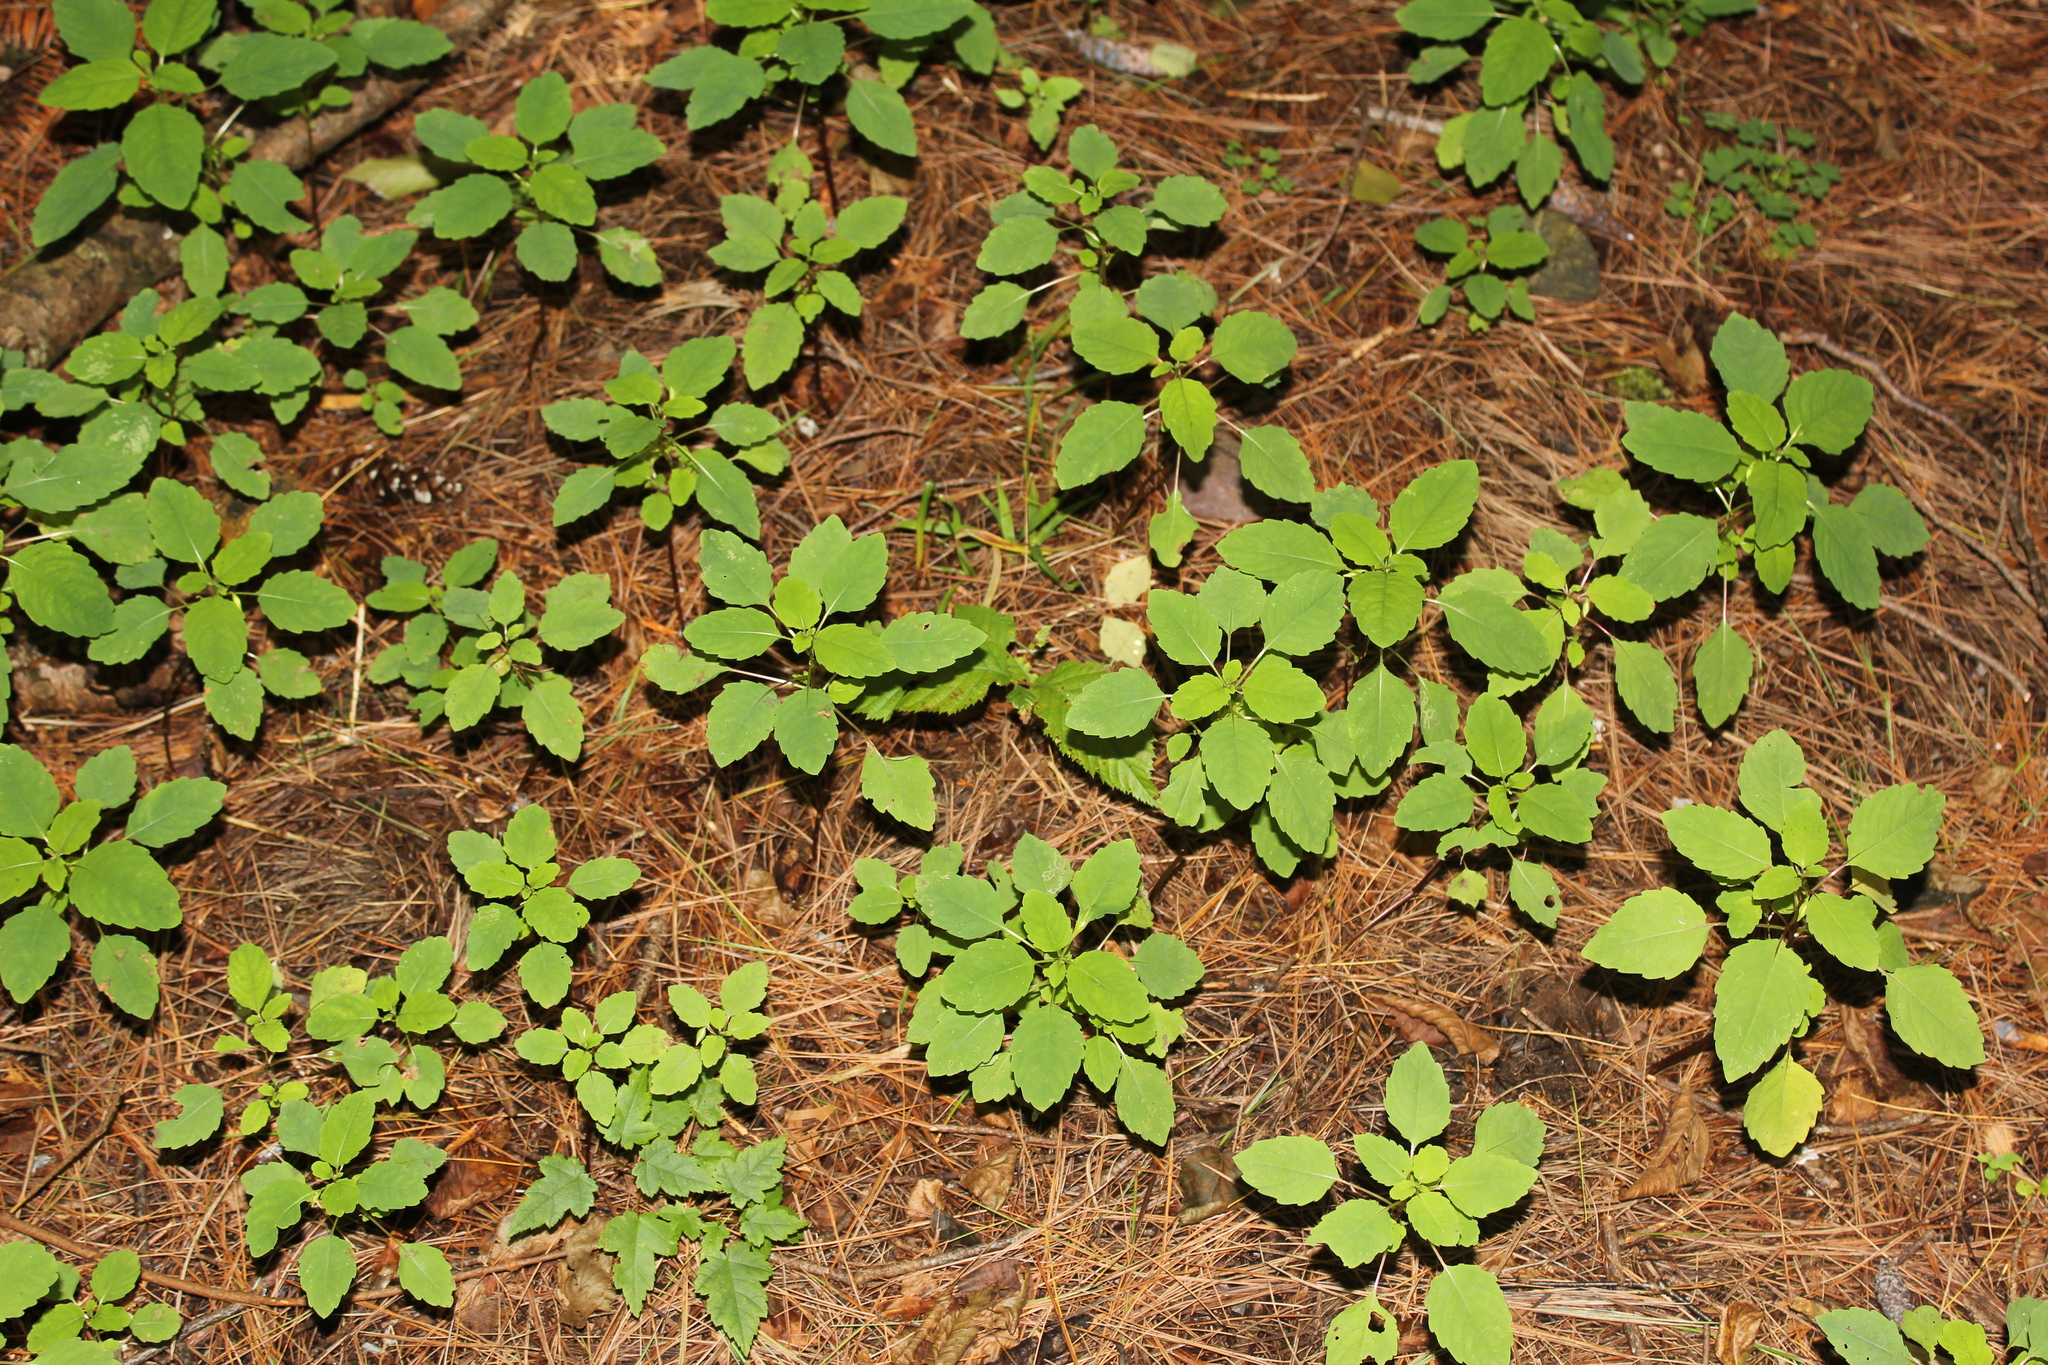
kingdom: Plantae
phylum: Tracheophyta
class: Magnoliopsida
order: Ericales
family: Balsaminaceae
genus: Impatiens
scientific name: Impatiens
